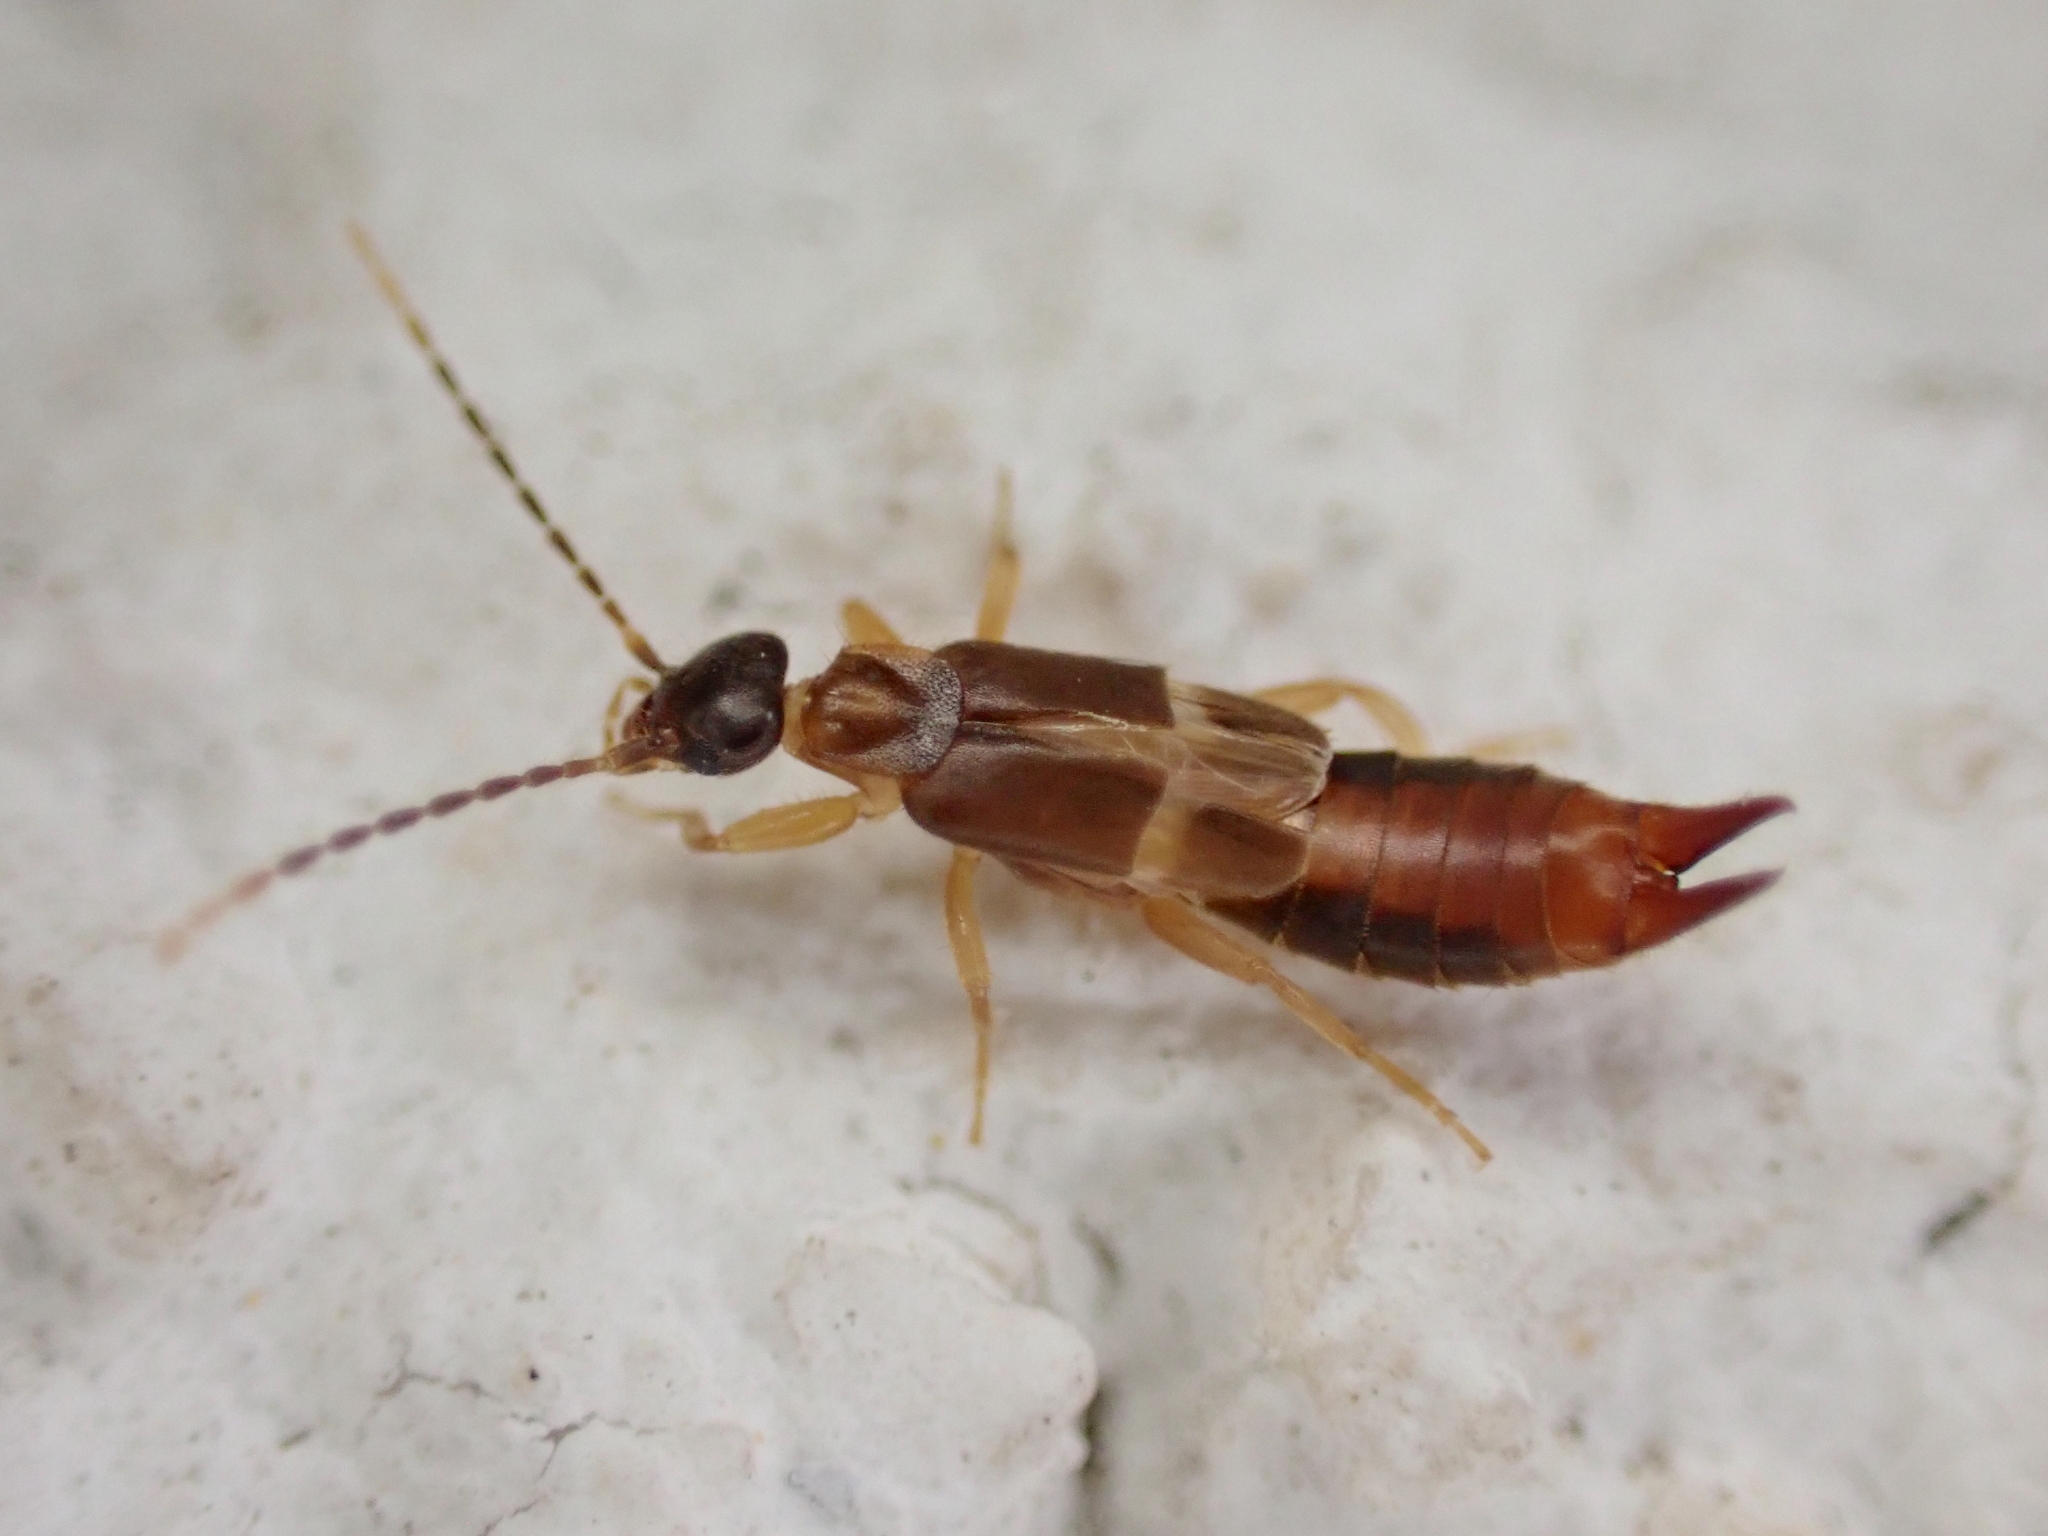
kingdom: Animalia
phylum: Arthropoda
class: Insecta
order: Dermaptera
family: Spongiphoridae
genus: Labia
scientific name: Labia minor
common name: Lesser earwig
